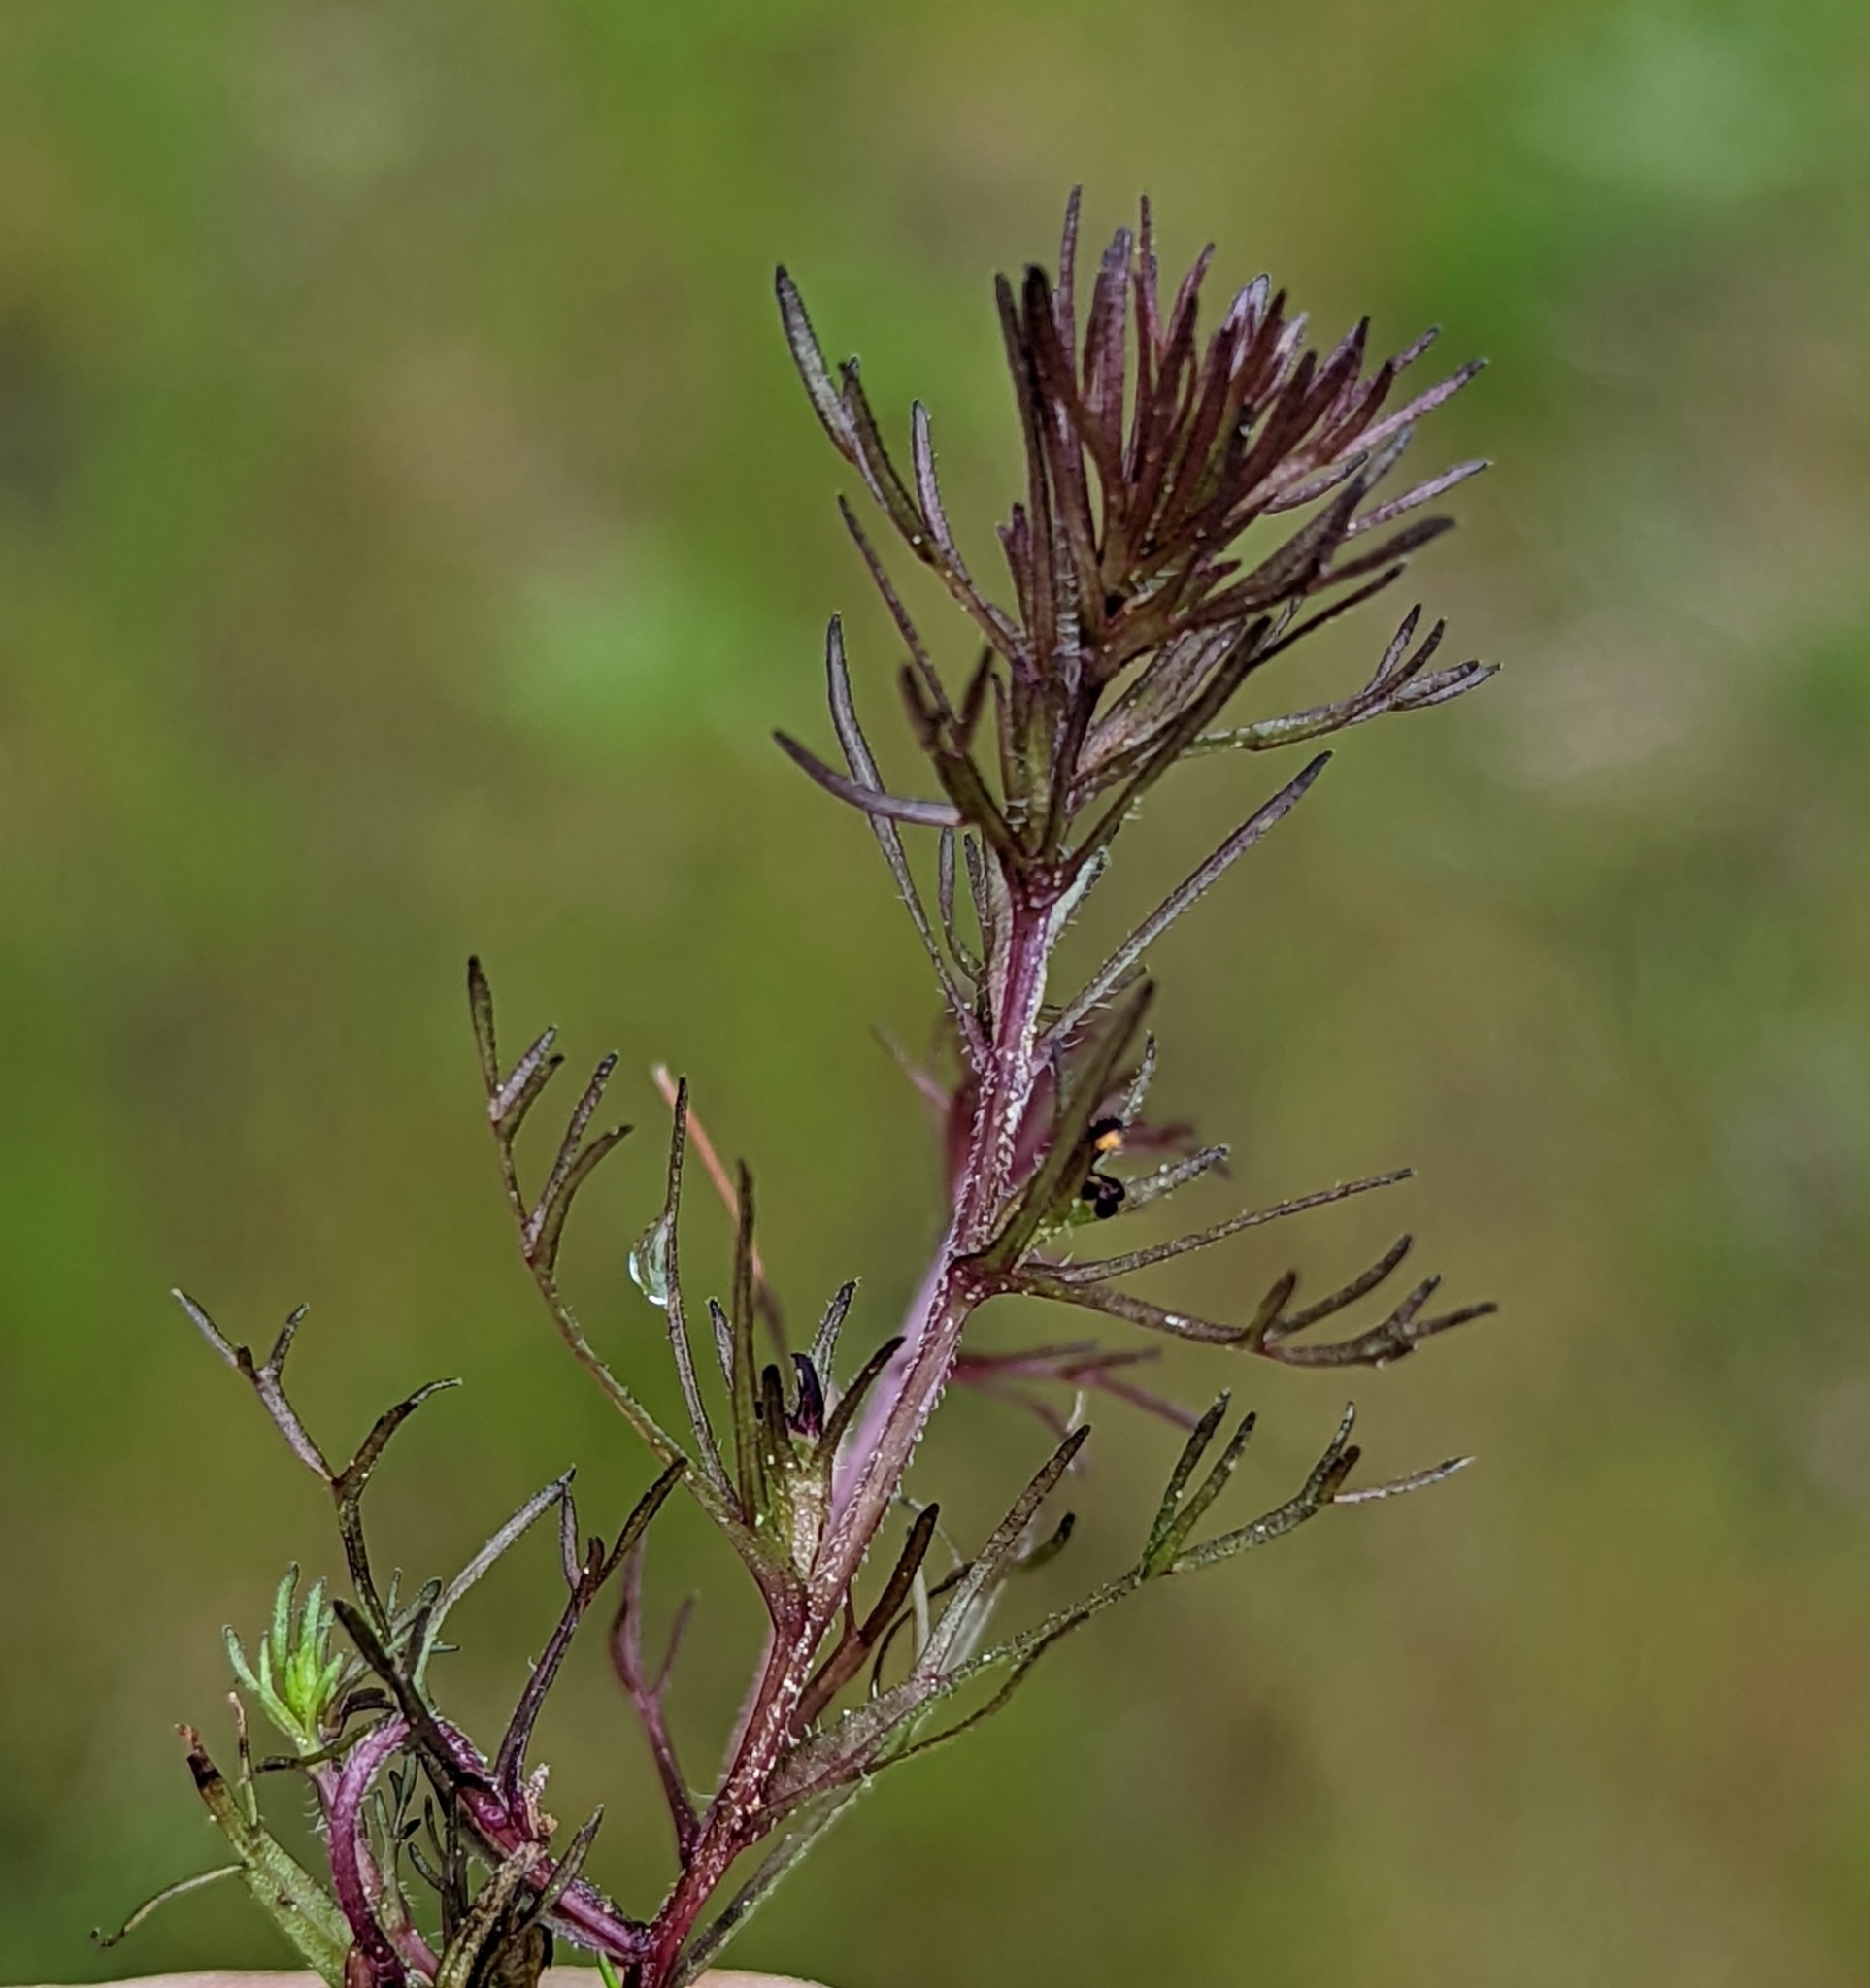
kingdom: Plantae
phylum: Tracheophyta
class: Magnoliopsida
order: Lamiales
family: Orobanchaceae
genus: Triphysaria
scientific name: Triphysaria pusilla
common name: Dwarf false owl-clover
